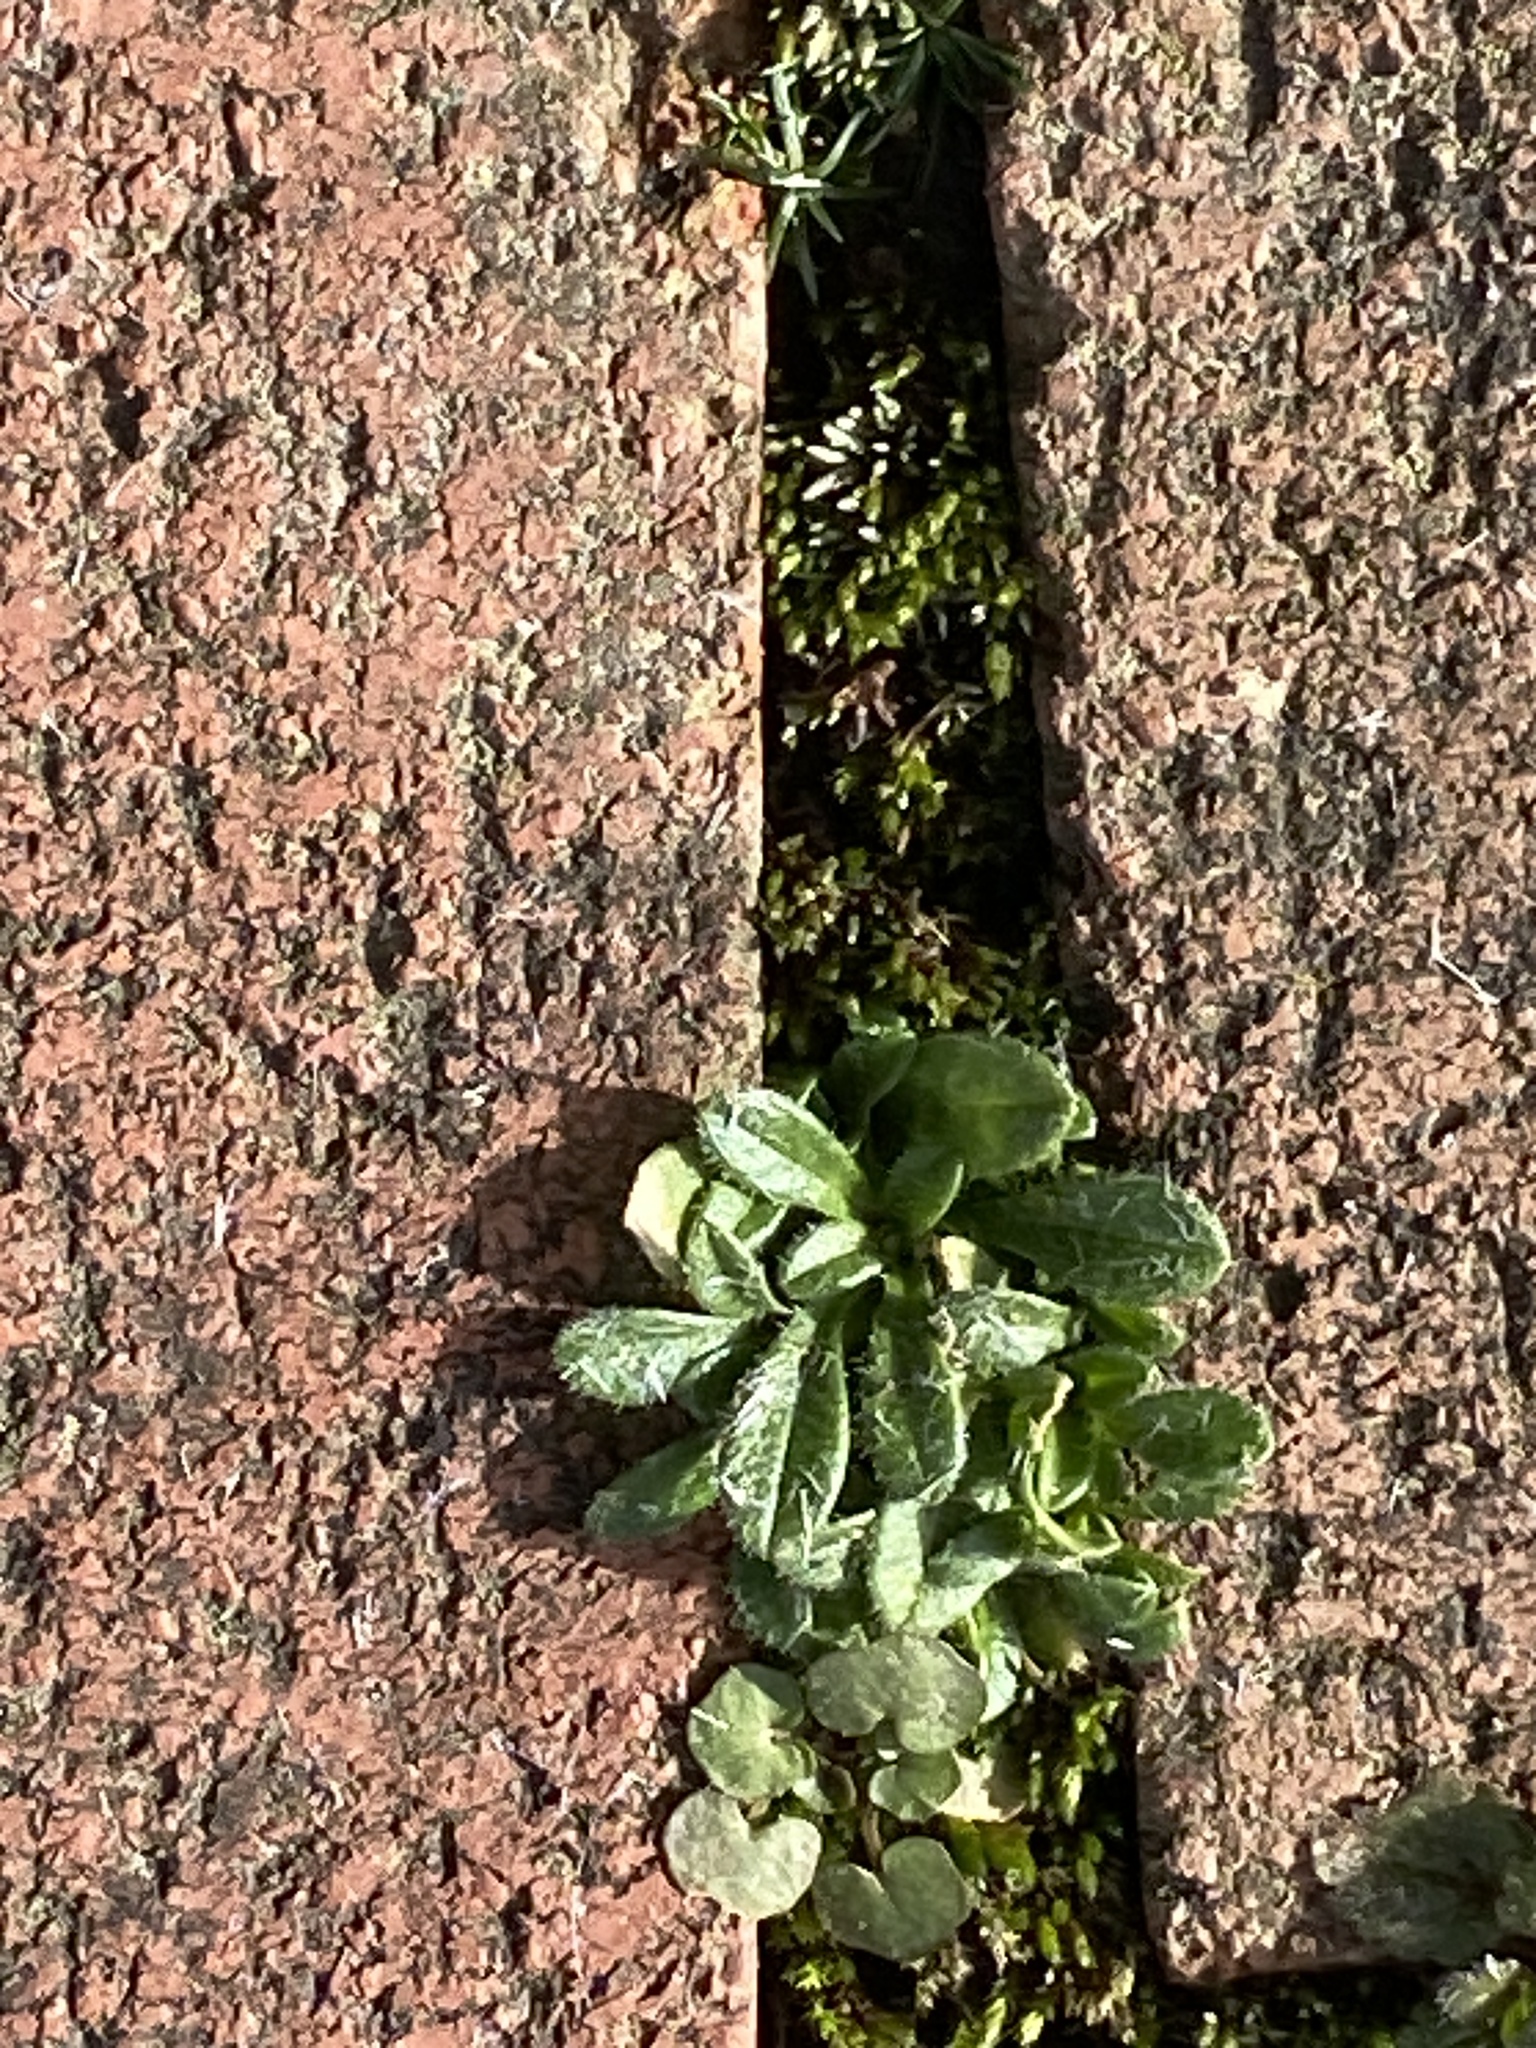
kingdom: Plantae
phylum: Tracheophyta
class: Magnoliopsida
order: Brassicales
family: Brassicaceae
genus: Cardamine
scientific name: Cardamine hirsuta
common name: Hairy bittercress
